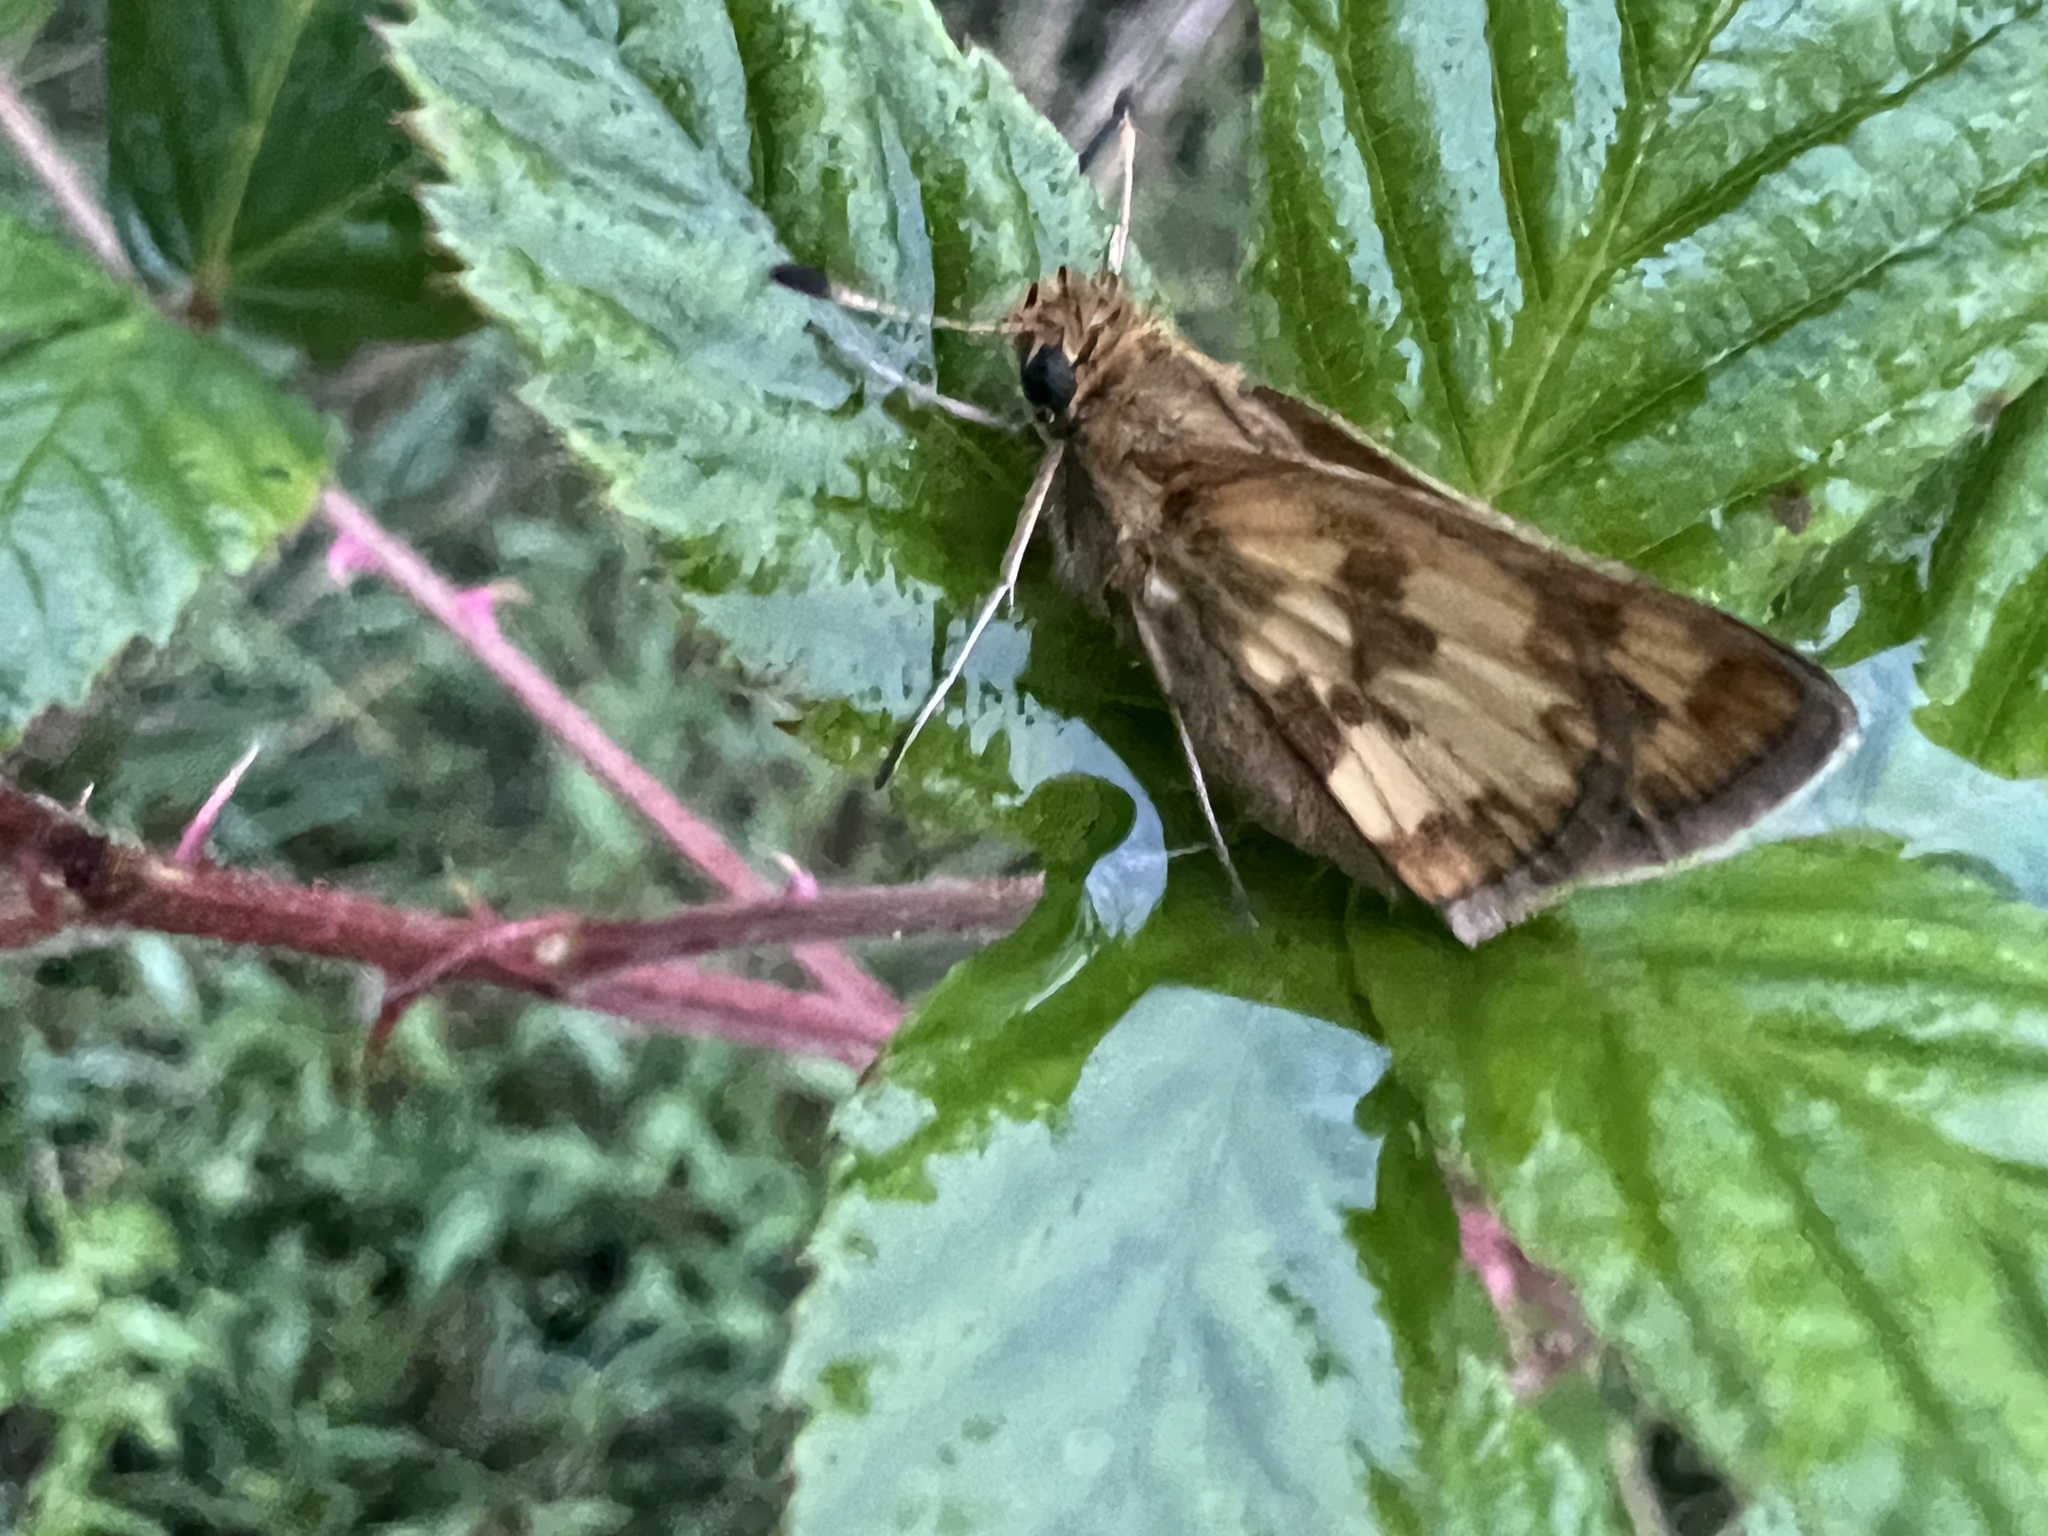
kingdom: Animalia
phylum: Arthropoda
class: Insecta
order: Lepidoptera
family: Hesperiidae
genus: Polites
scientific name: Polites coras
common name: Peck's skipper
